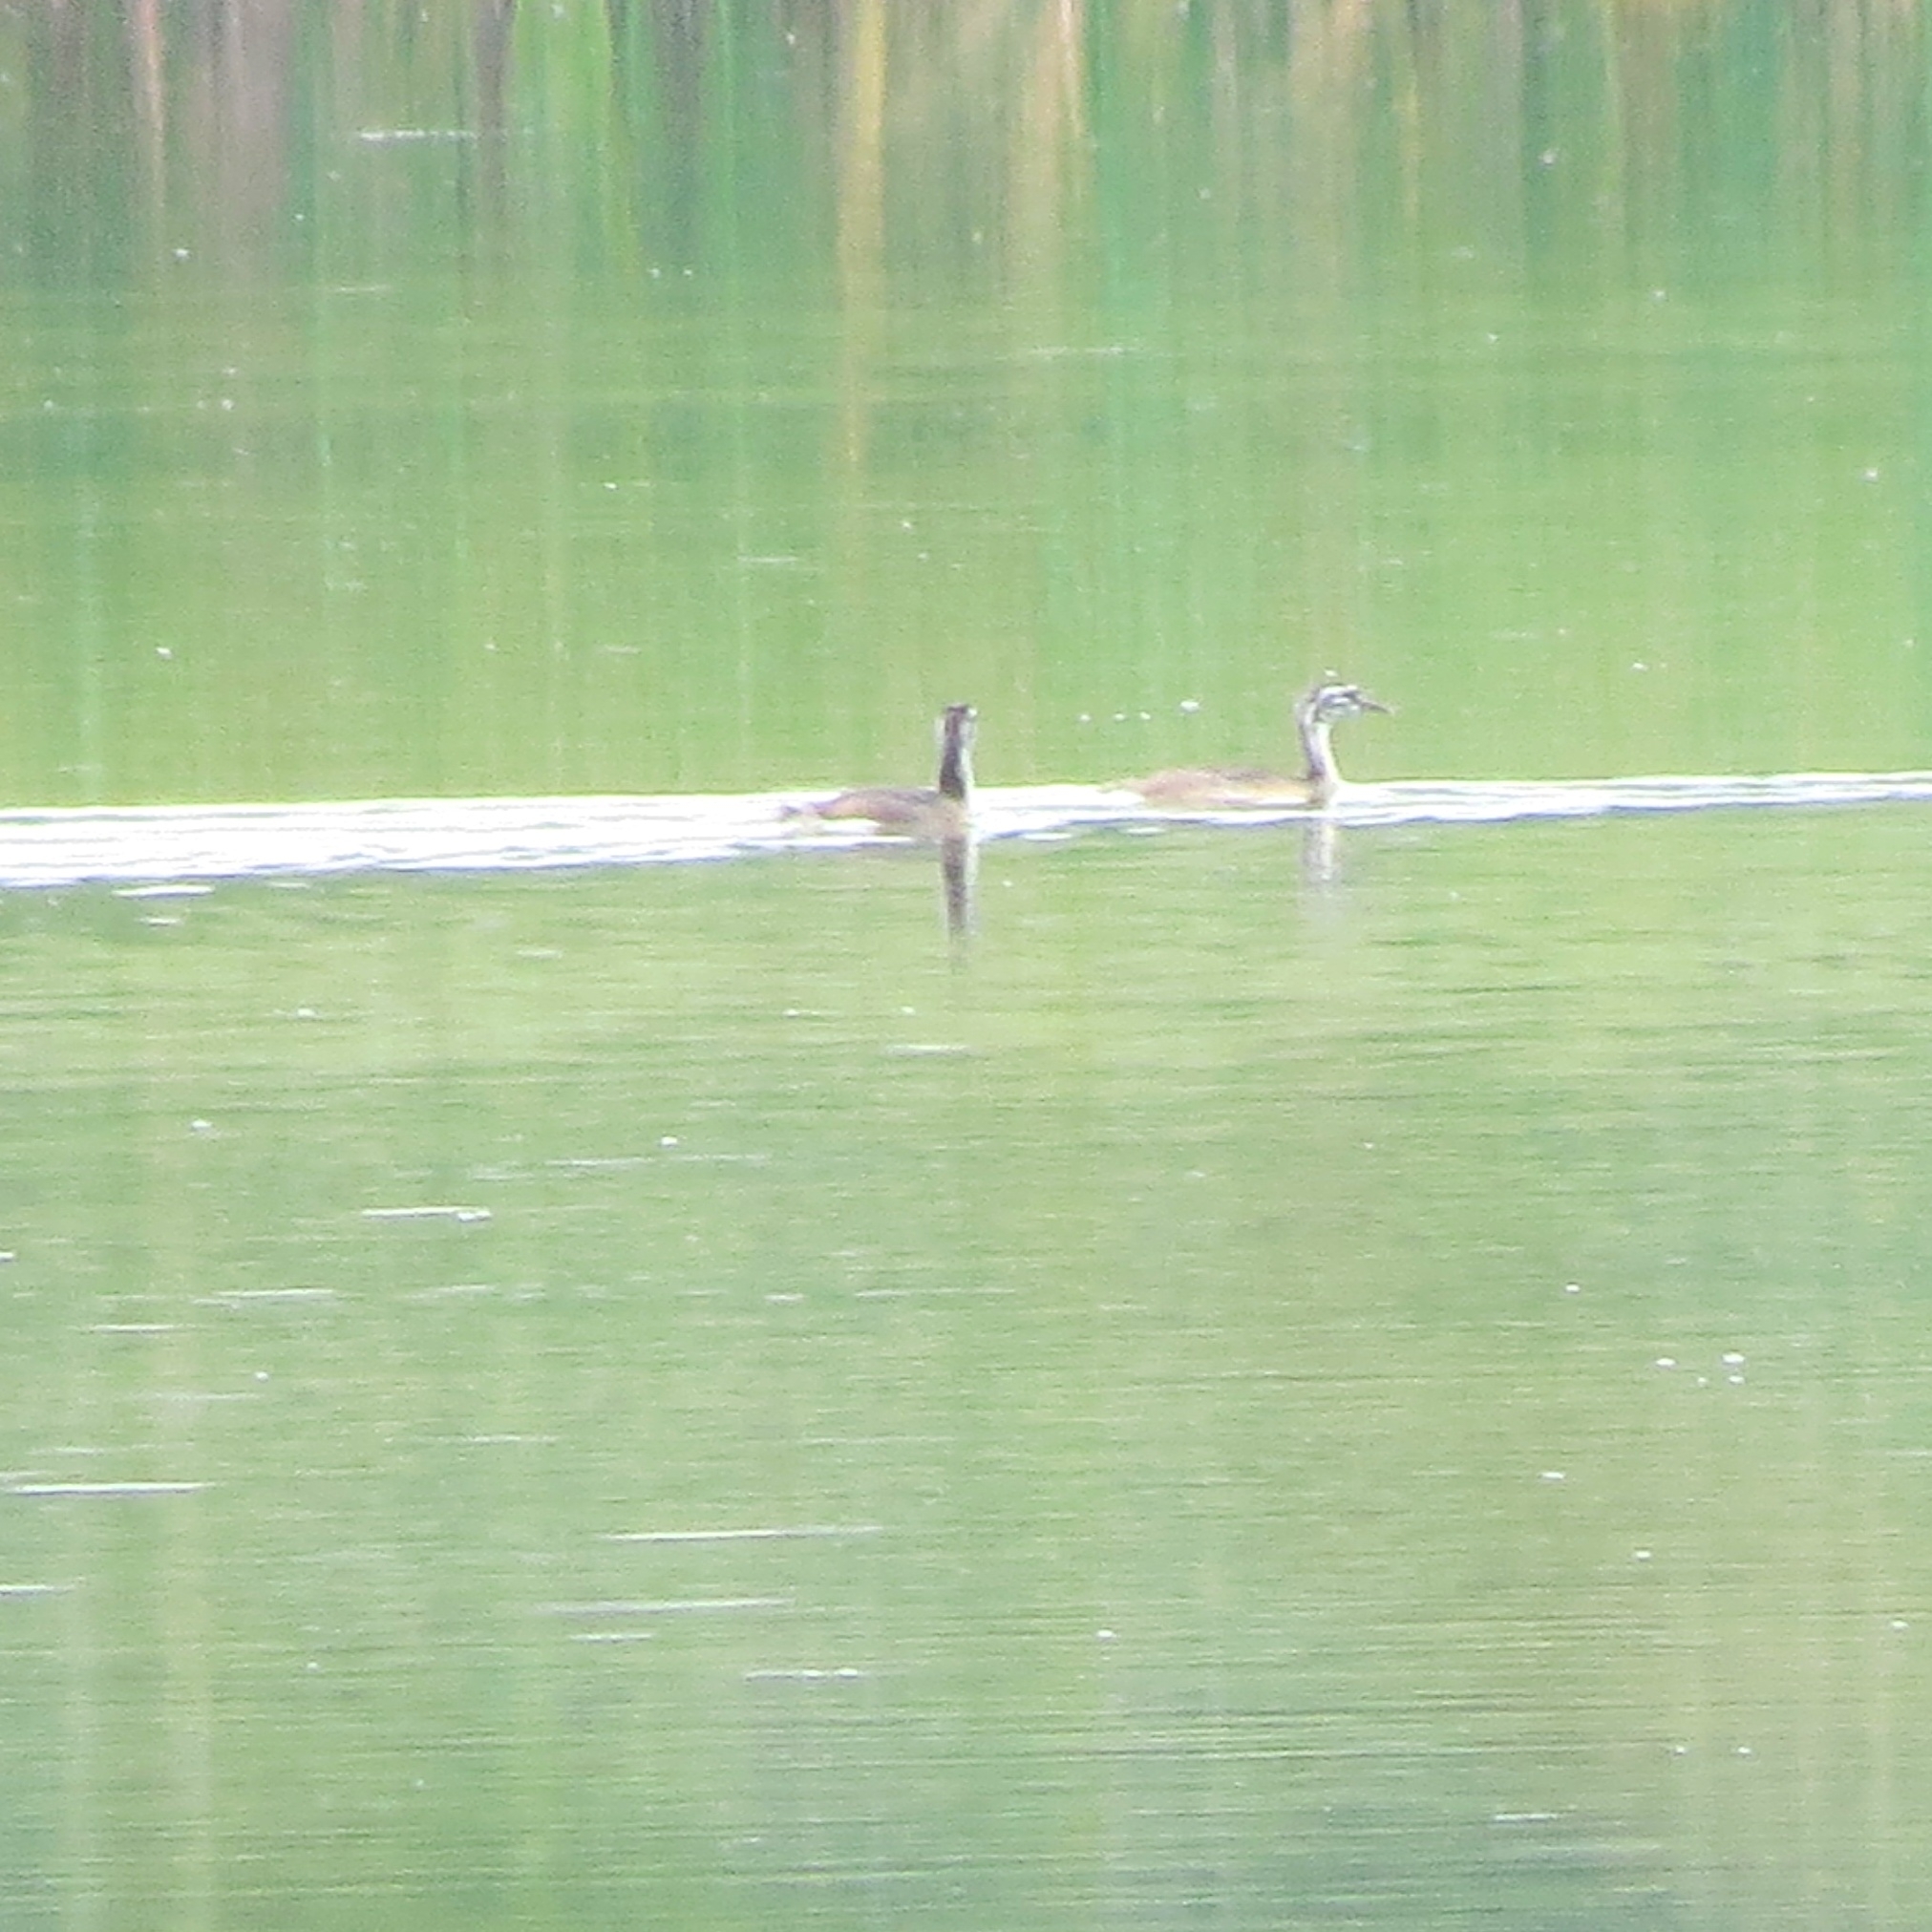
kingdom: Animalia
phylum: Chordata
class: Aves
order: Podicipediformes
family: Podicipedidae
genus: Podiceps
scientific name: Podiceps cristatus
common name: Great crested grebe
